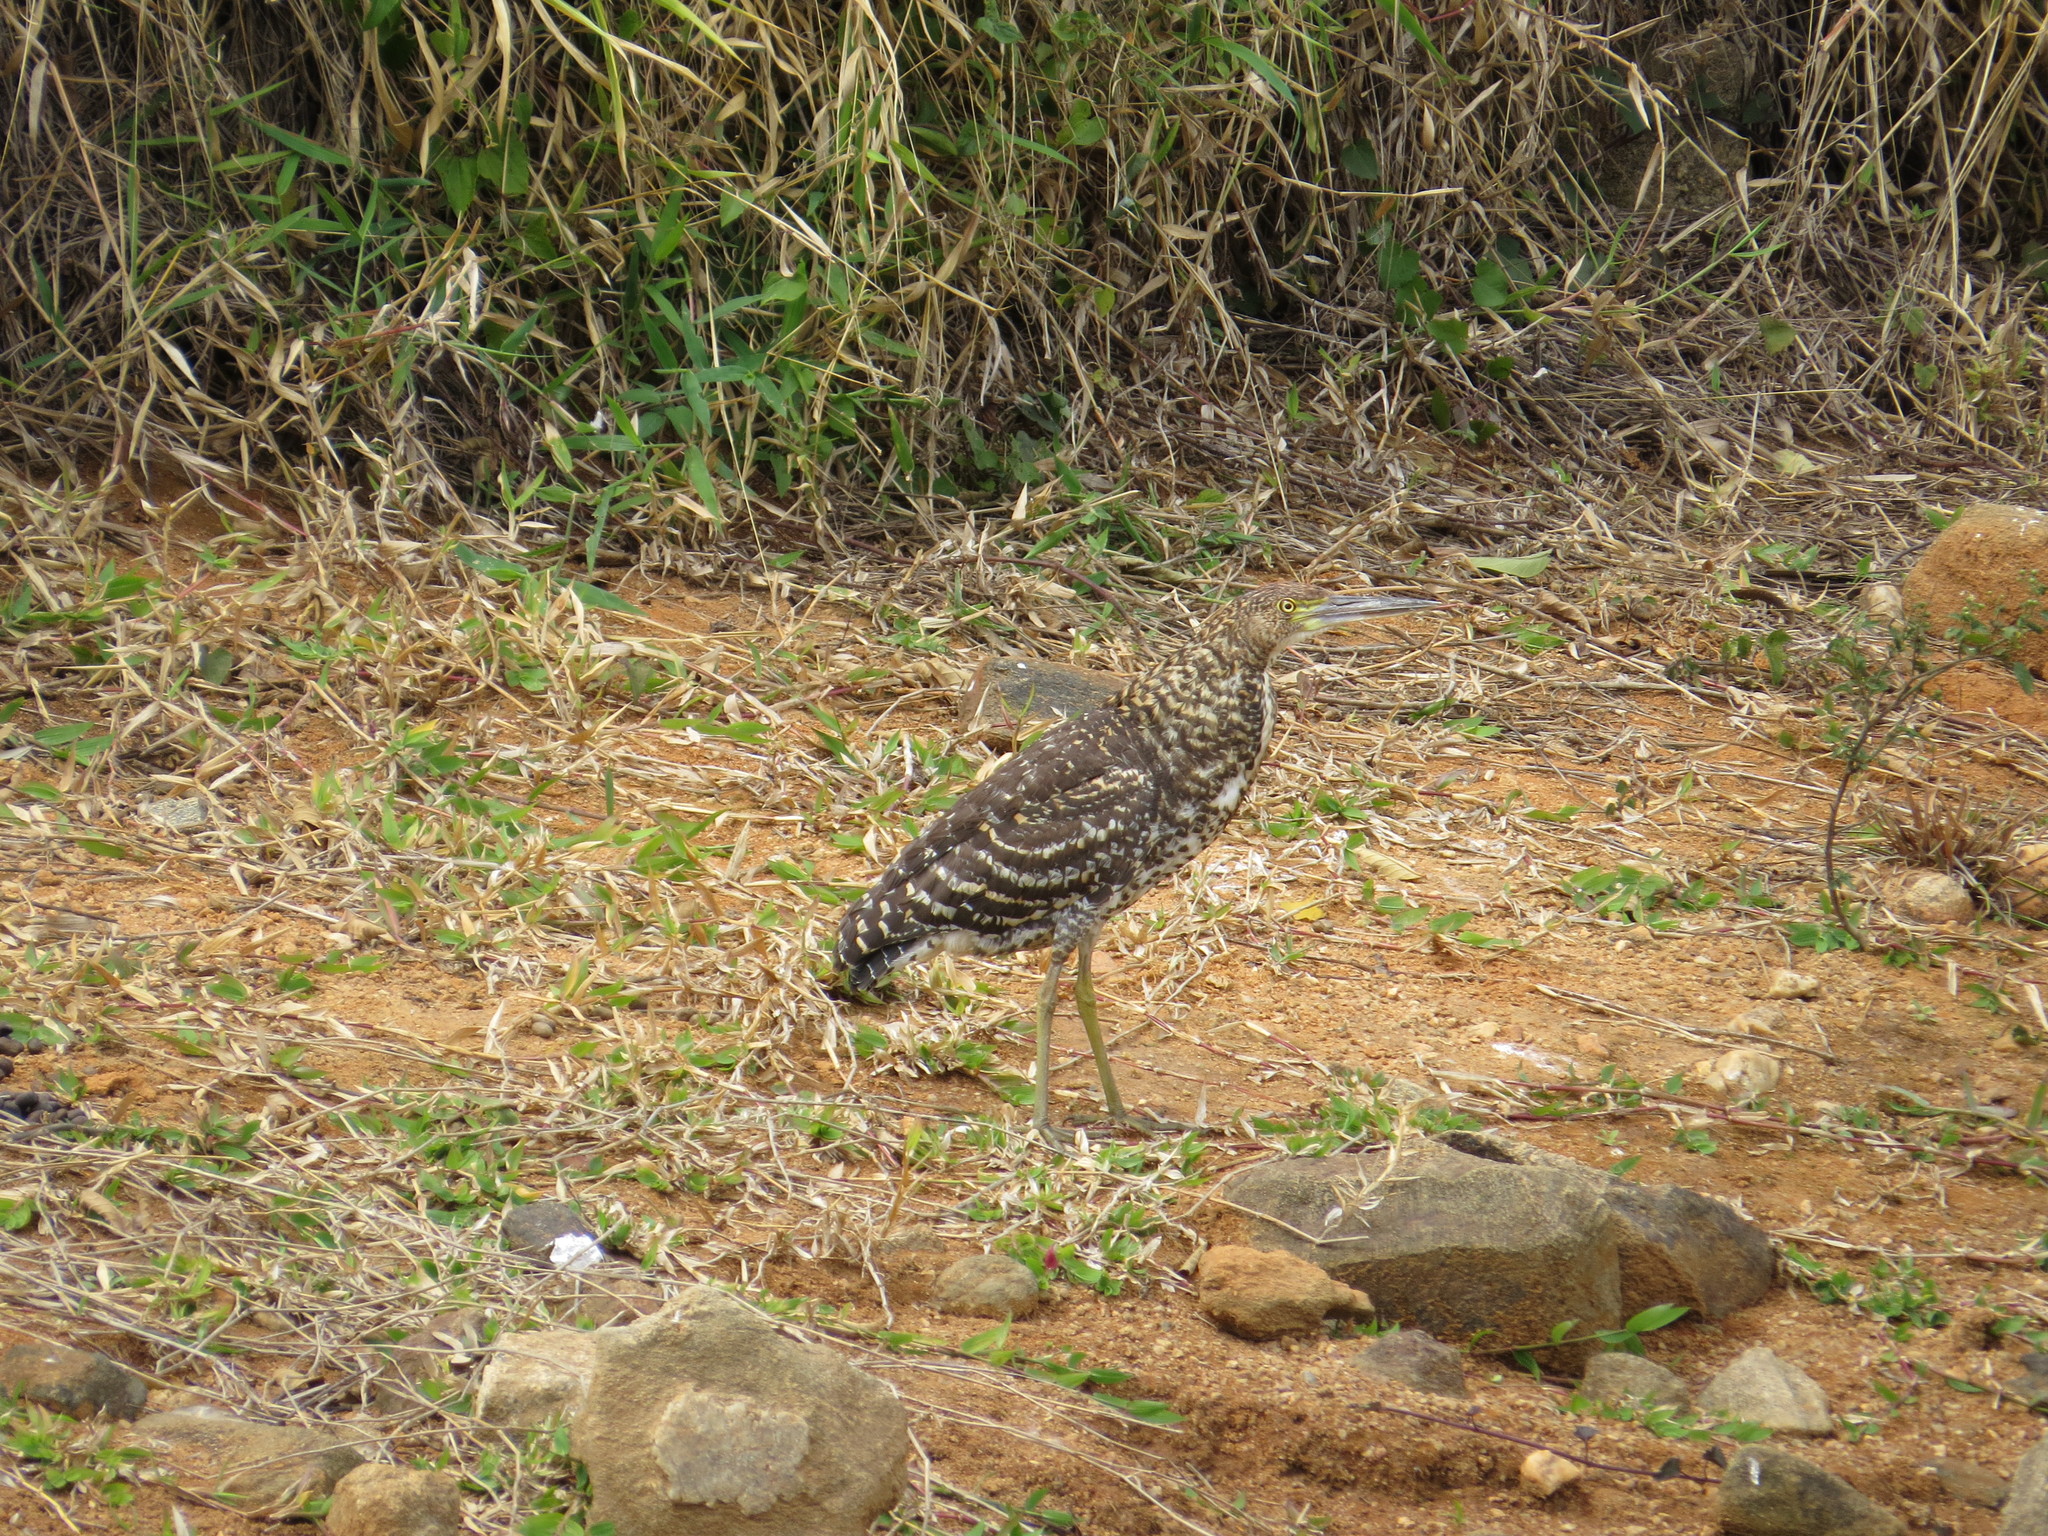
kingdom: Animalia
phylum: Chordata
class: Aves
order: Pelecaniformes
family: Ardeidae
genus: Tigrisoma
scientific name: Tigrisoma lineatum
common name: Rufescent tiger-heron
